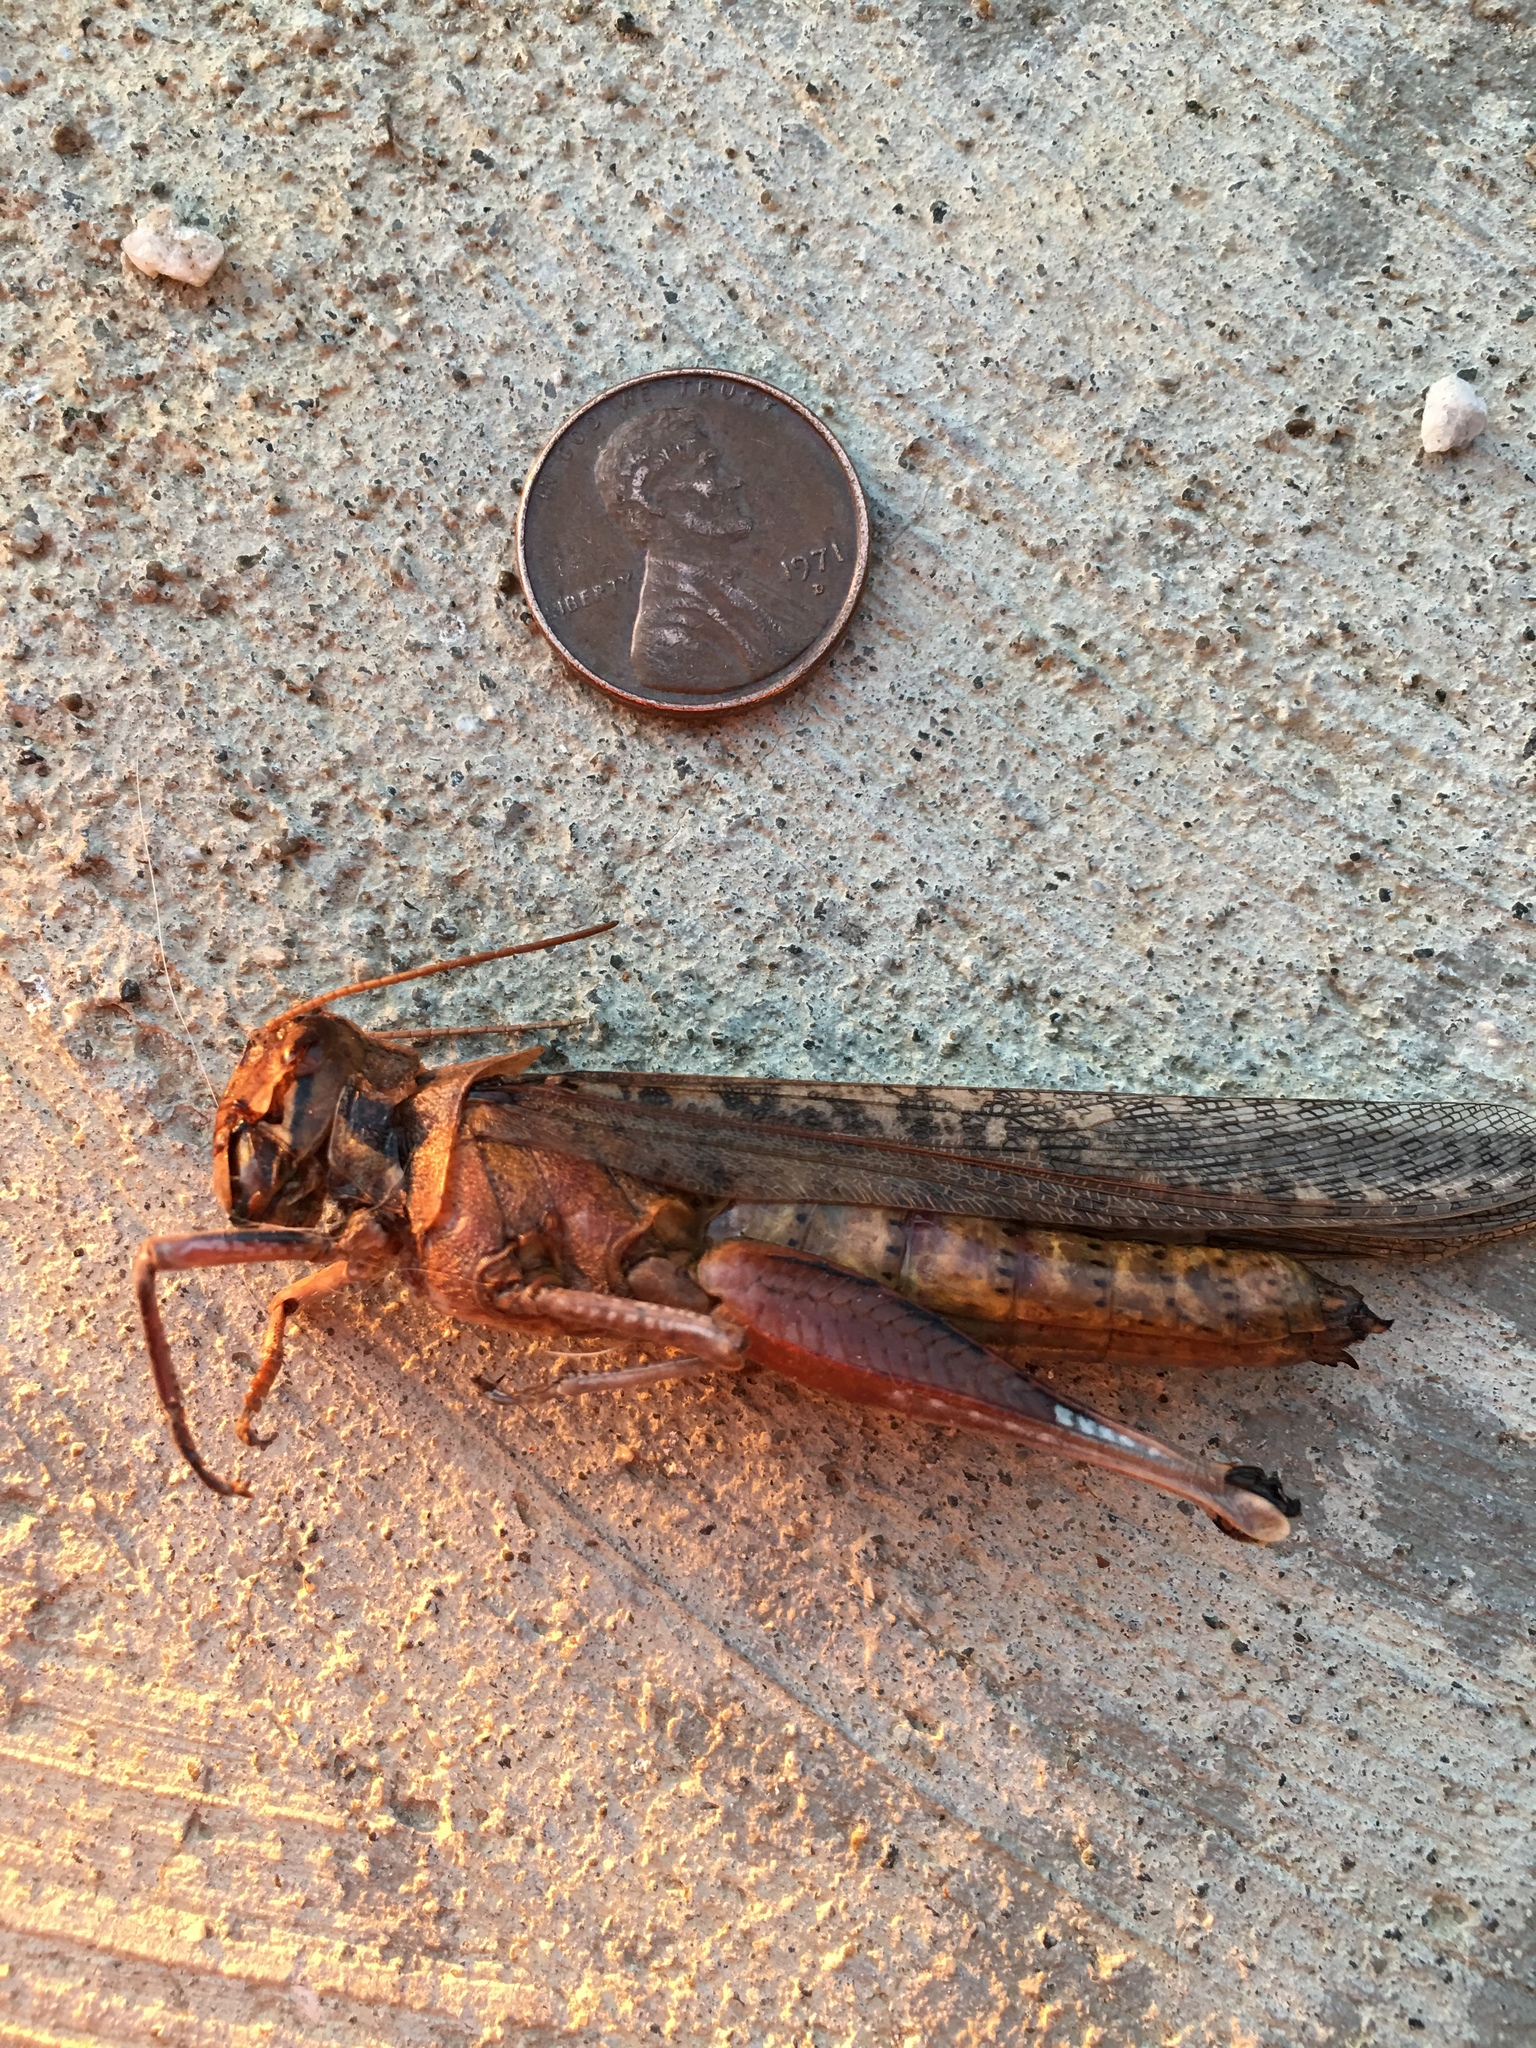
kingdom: Animalia
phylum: Arthropoda
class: Insecta
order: Orthoptera
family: Acrididae
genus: Schistocerca
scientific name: Schistocerca nitens
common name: Vagrant grasshopper
